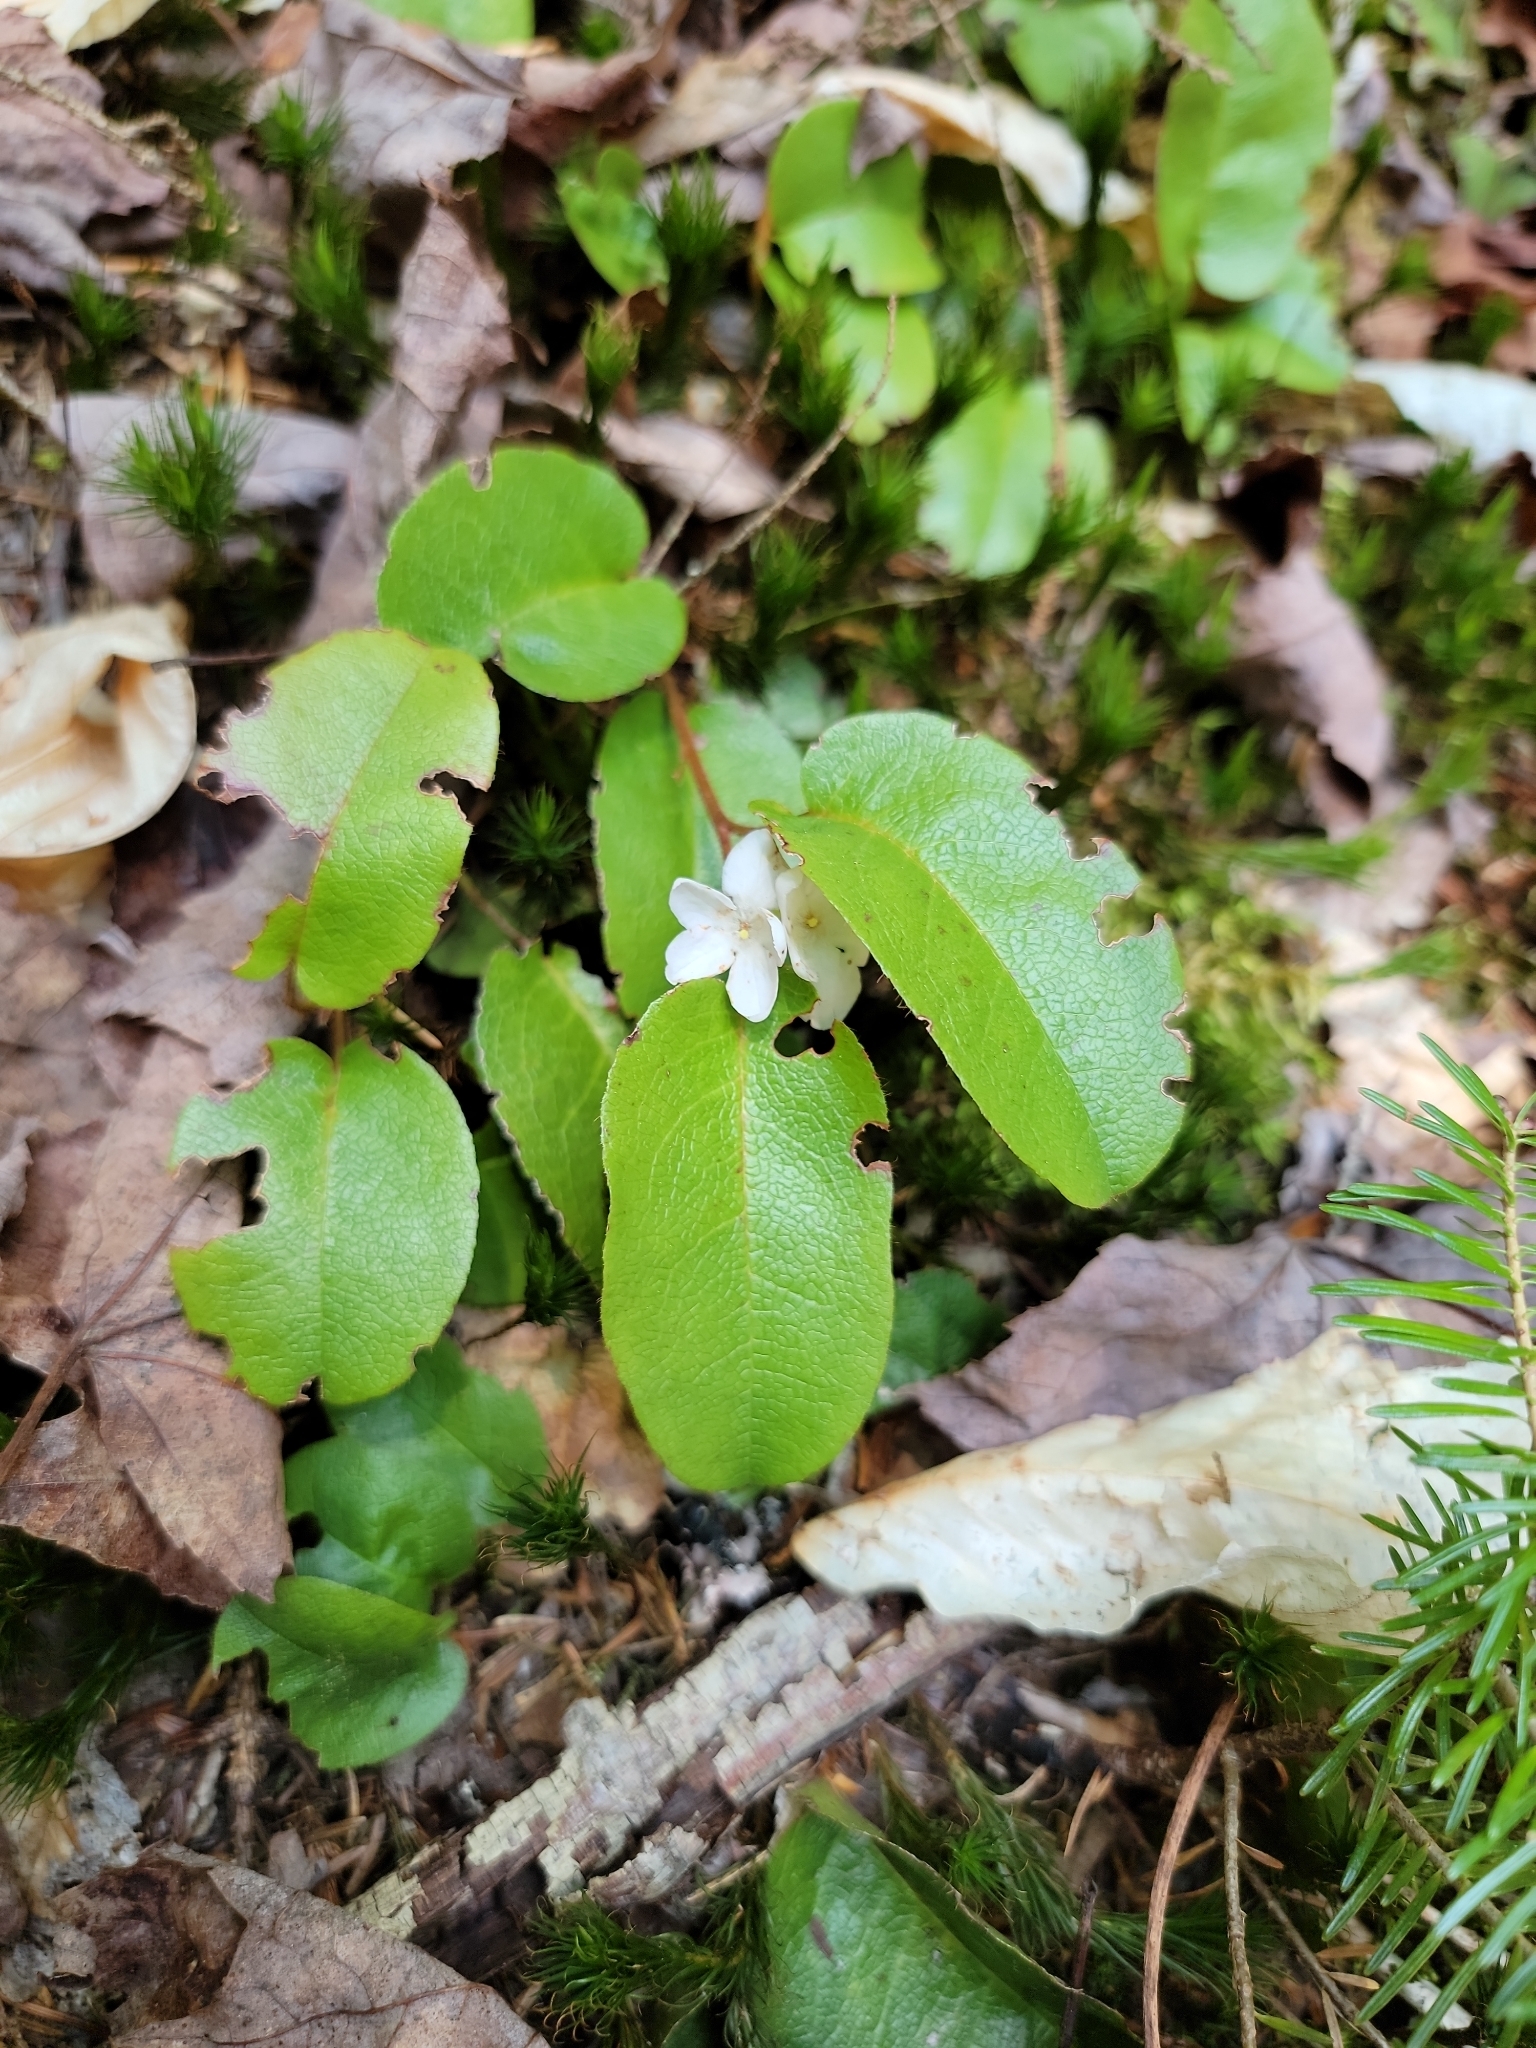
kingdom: Plantae
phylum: Tracheophyta
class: Magnoliopsida
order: Ericales
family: Ericaceae
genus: Epigaea
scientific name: Epigaea repens
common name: Gravelroot
